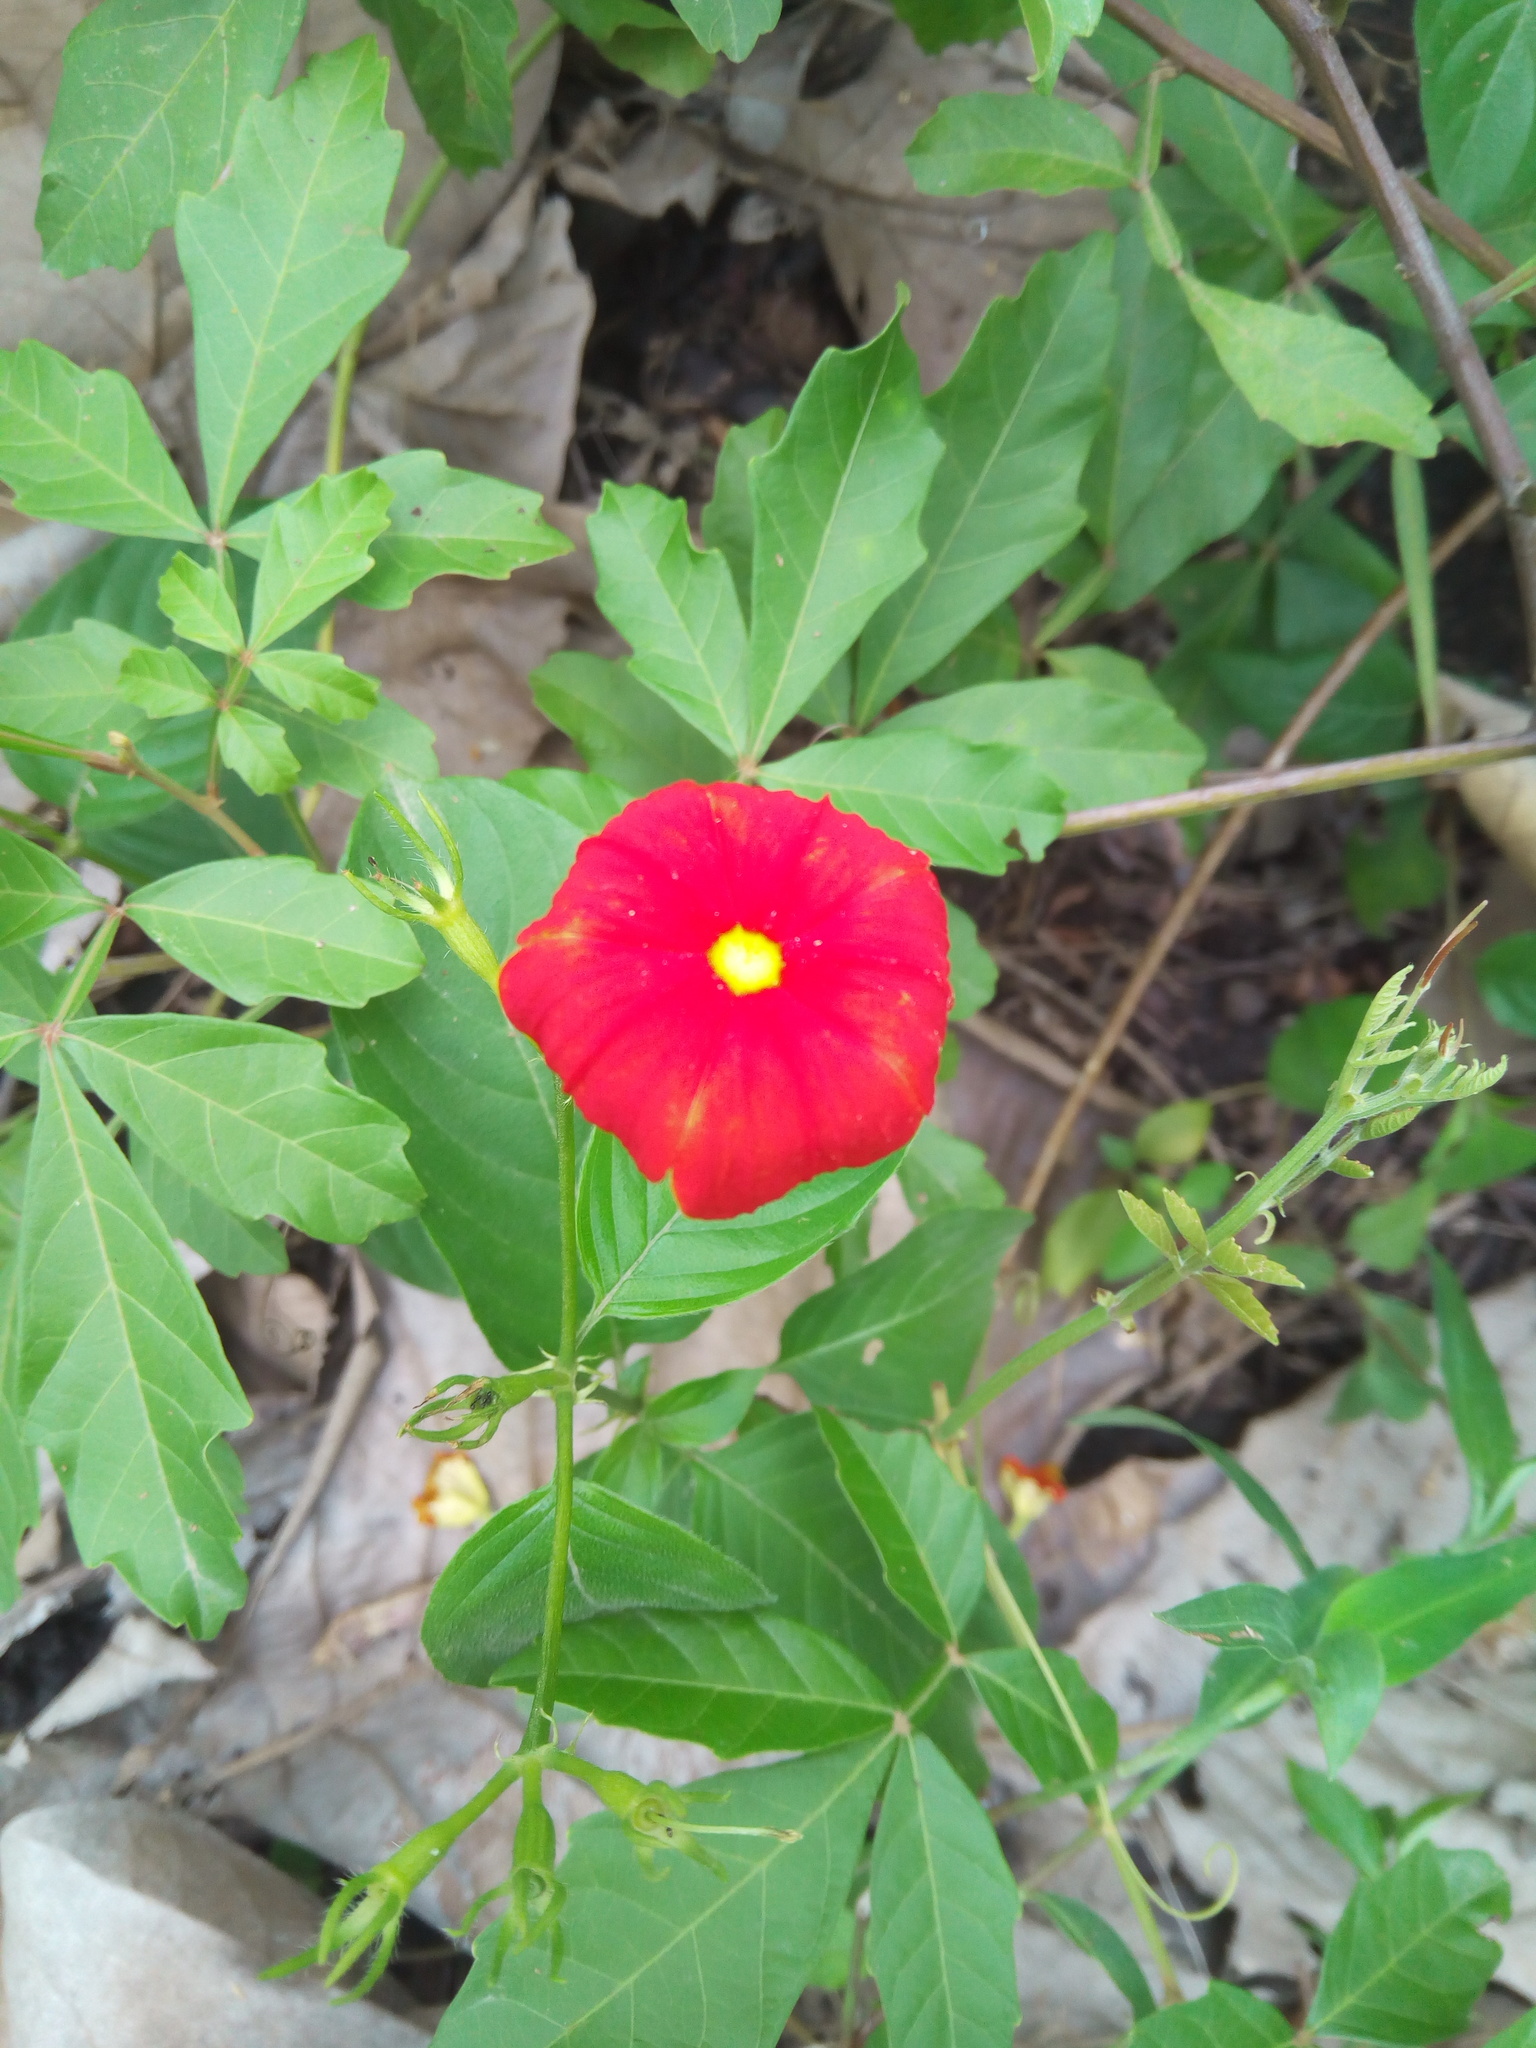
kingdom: Plantae
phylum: Tracheophyta
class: Magnoliopsida
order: Gentianales
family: Rubiaceae
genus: Mussaenda
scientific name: Mussaenda elegans
